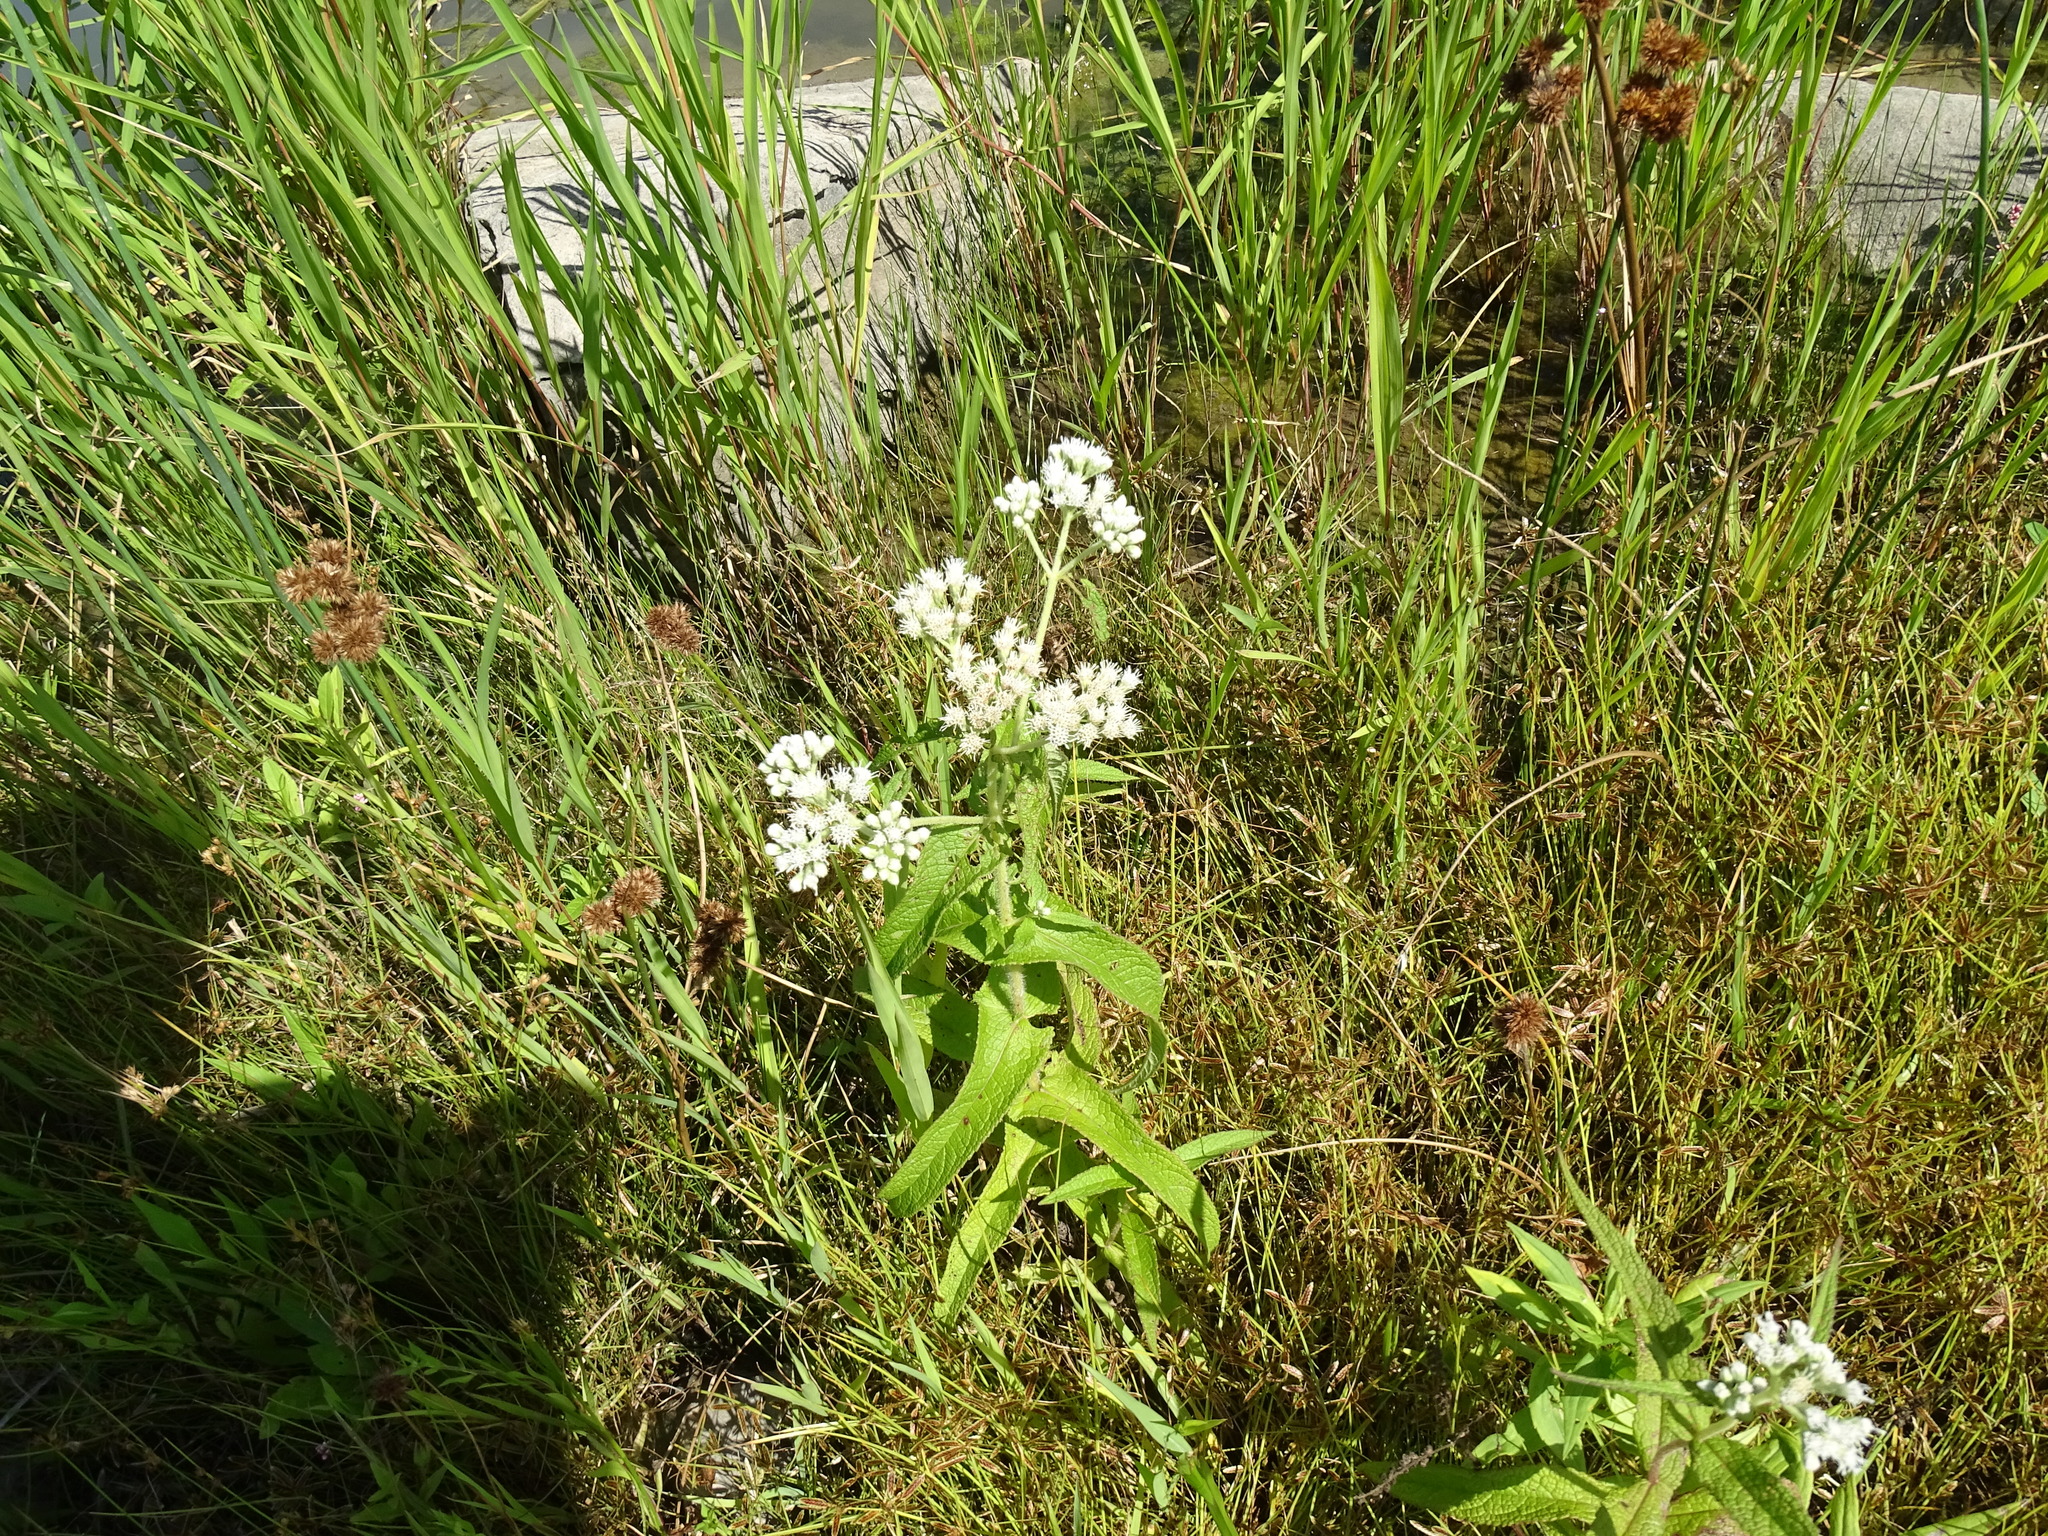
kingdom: Plantae
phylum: Tracheophyta
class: Magnoliopsida
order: Asterales
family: Asteraceae
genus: Eupatorium
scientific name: Eupatorium perfoliatum
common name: Boneset
